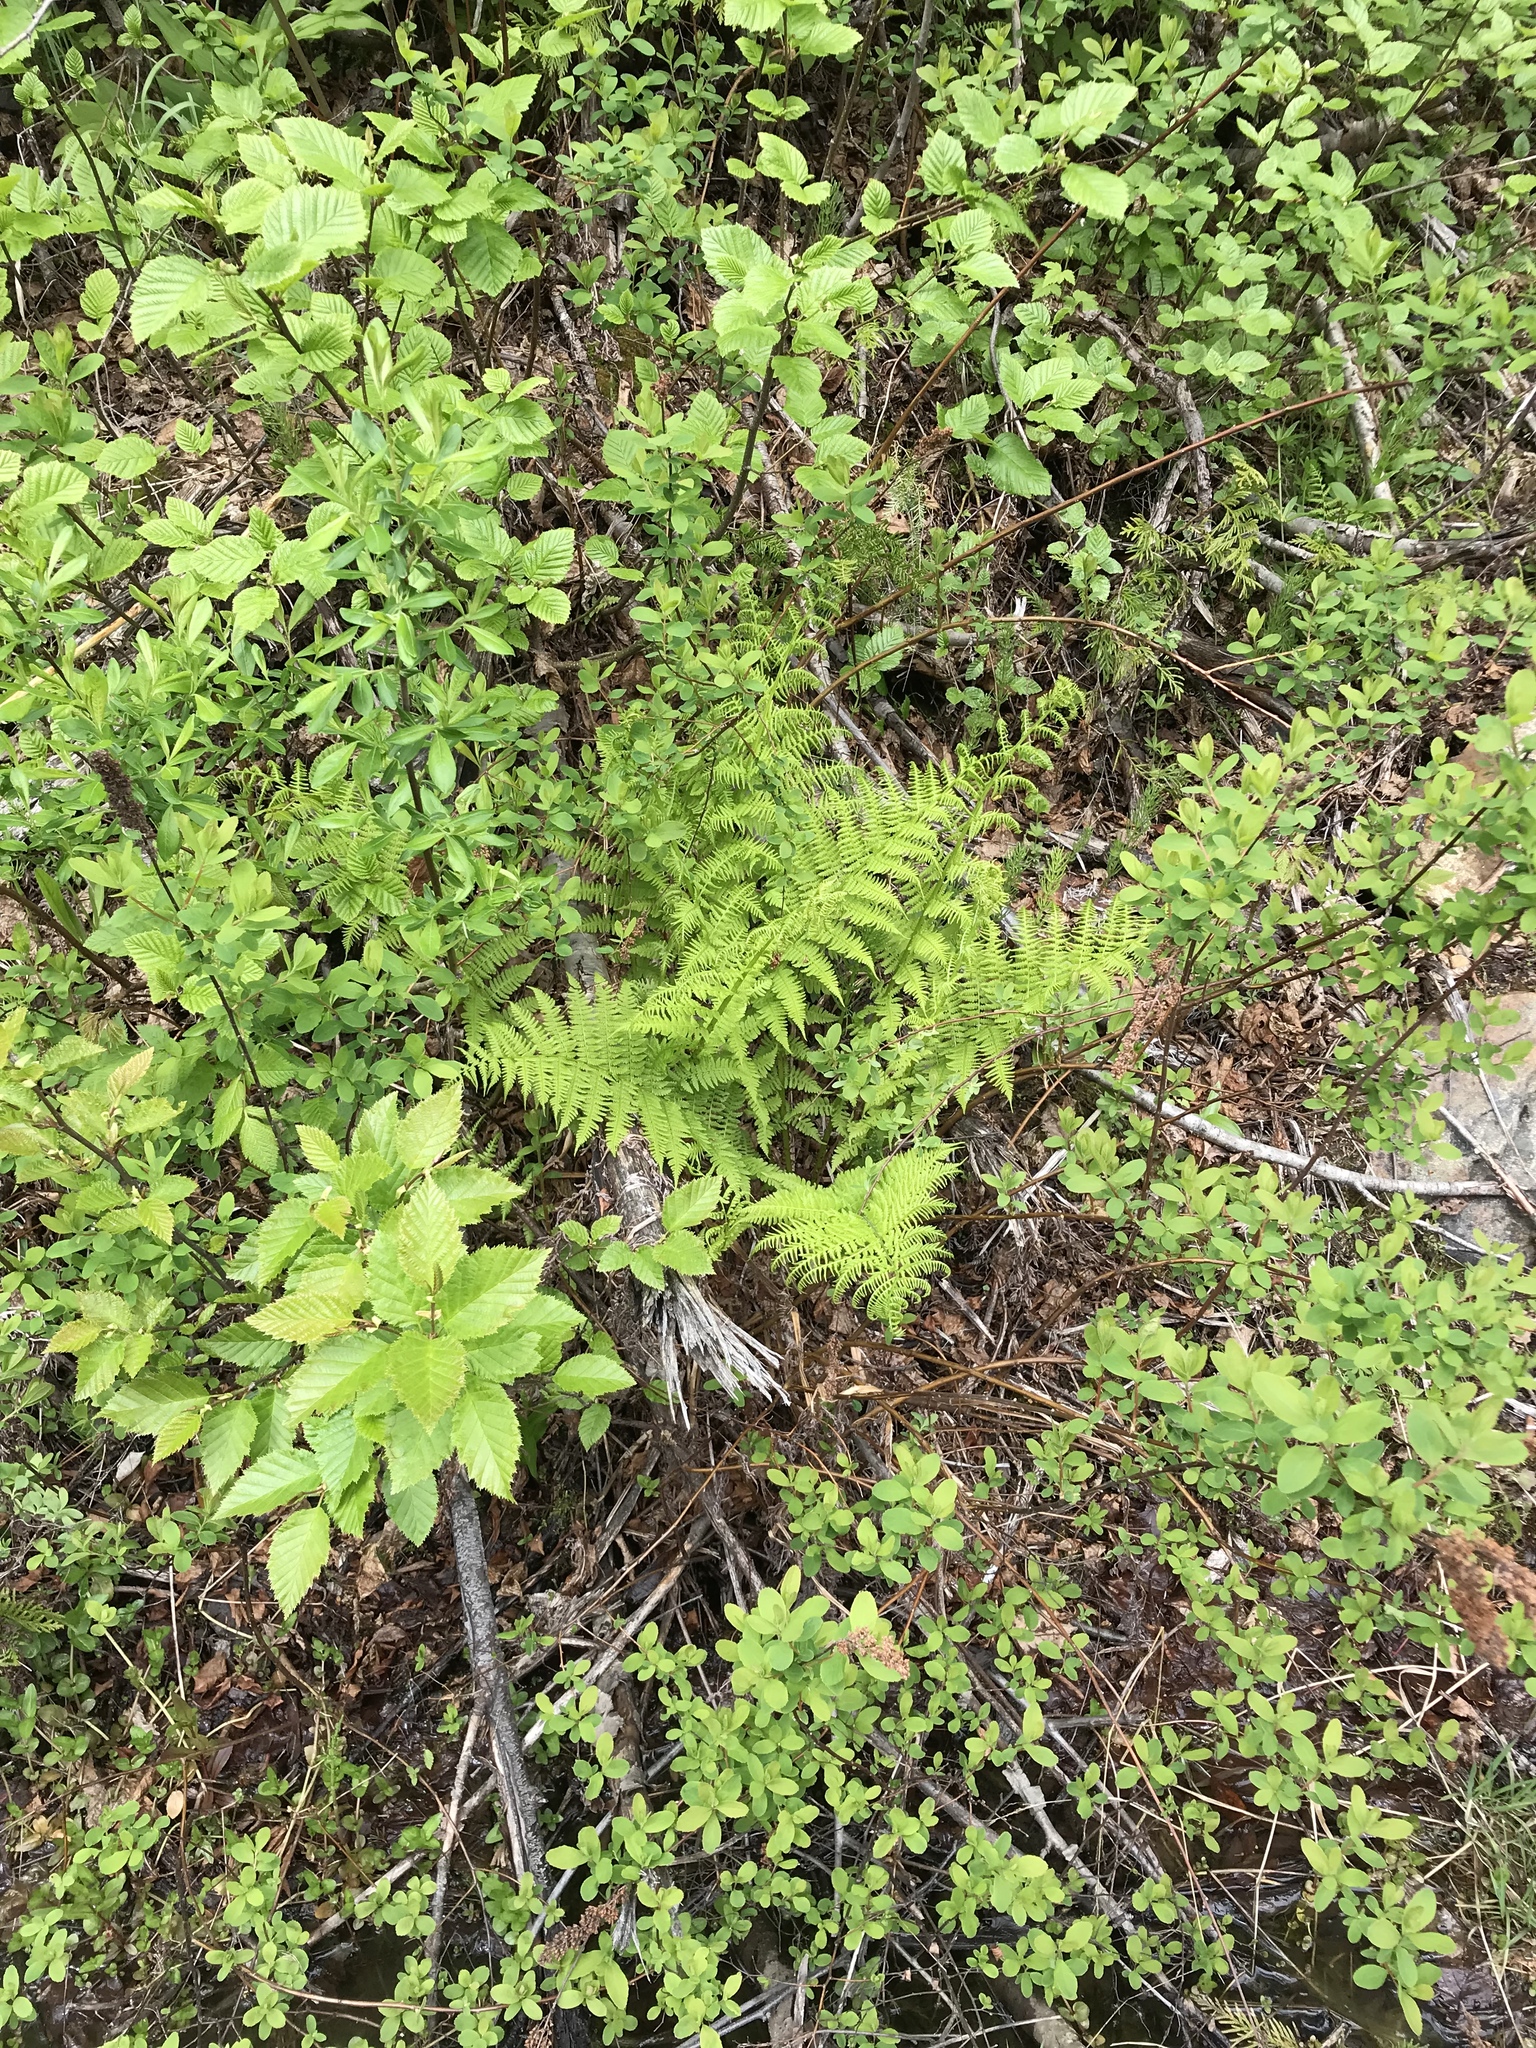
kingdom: Plantae
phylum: Tracheophyta
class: Polypodiopsida
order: Polypodiales
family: Athyriaceae
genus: Athyrium
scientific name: Athyrium filix-femina
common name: Lady fern
